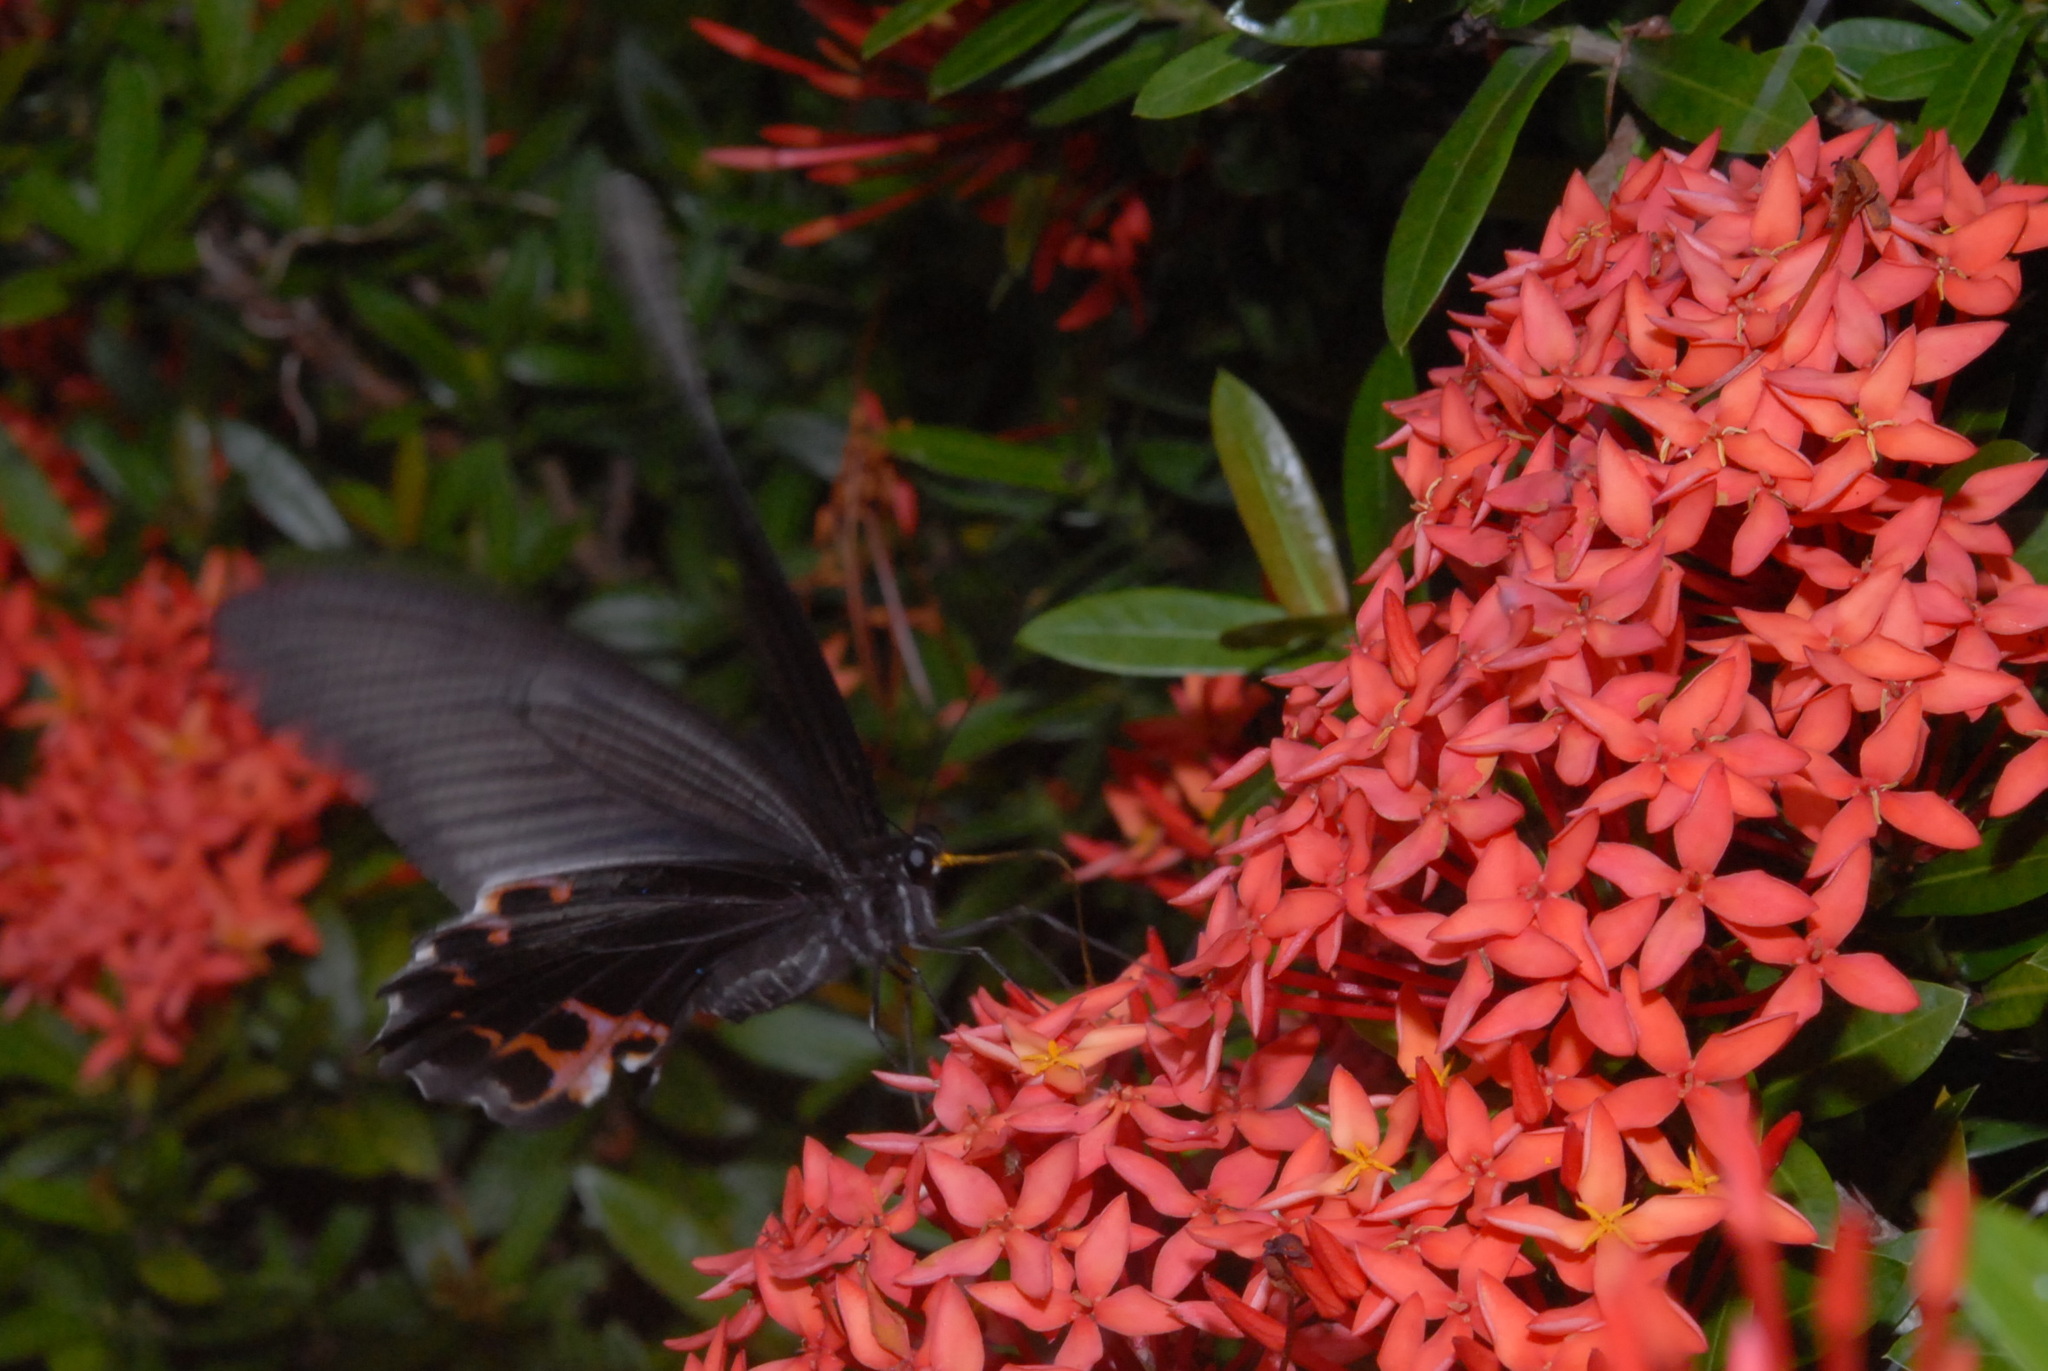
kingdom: Animalia
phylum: Arthropoda
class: Insecta
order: Lepidoptera
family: Papilionidae
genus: Papilio
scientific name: Papilio protenor
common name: Spangle
